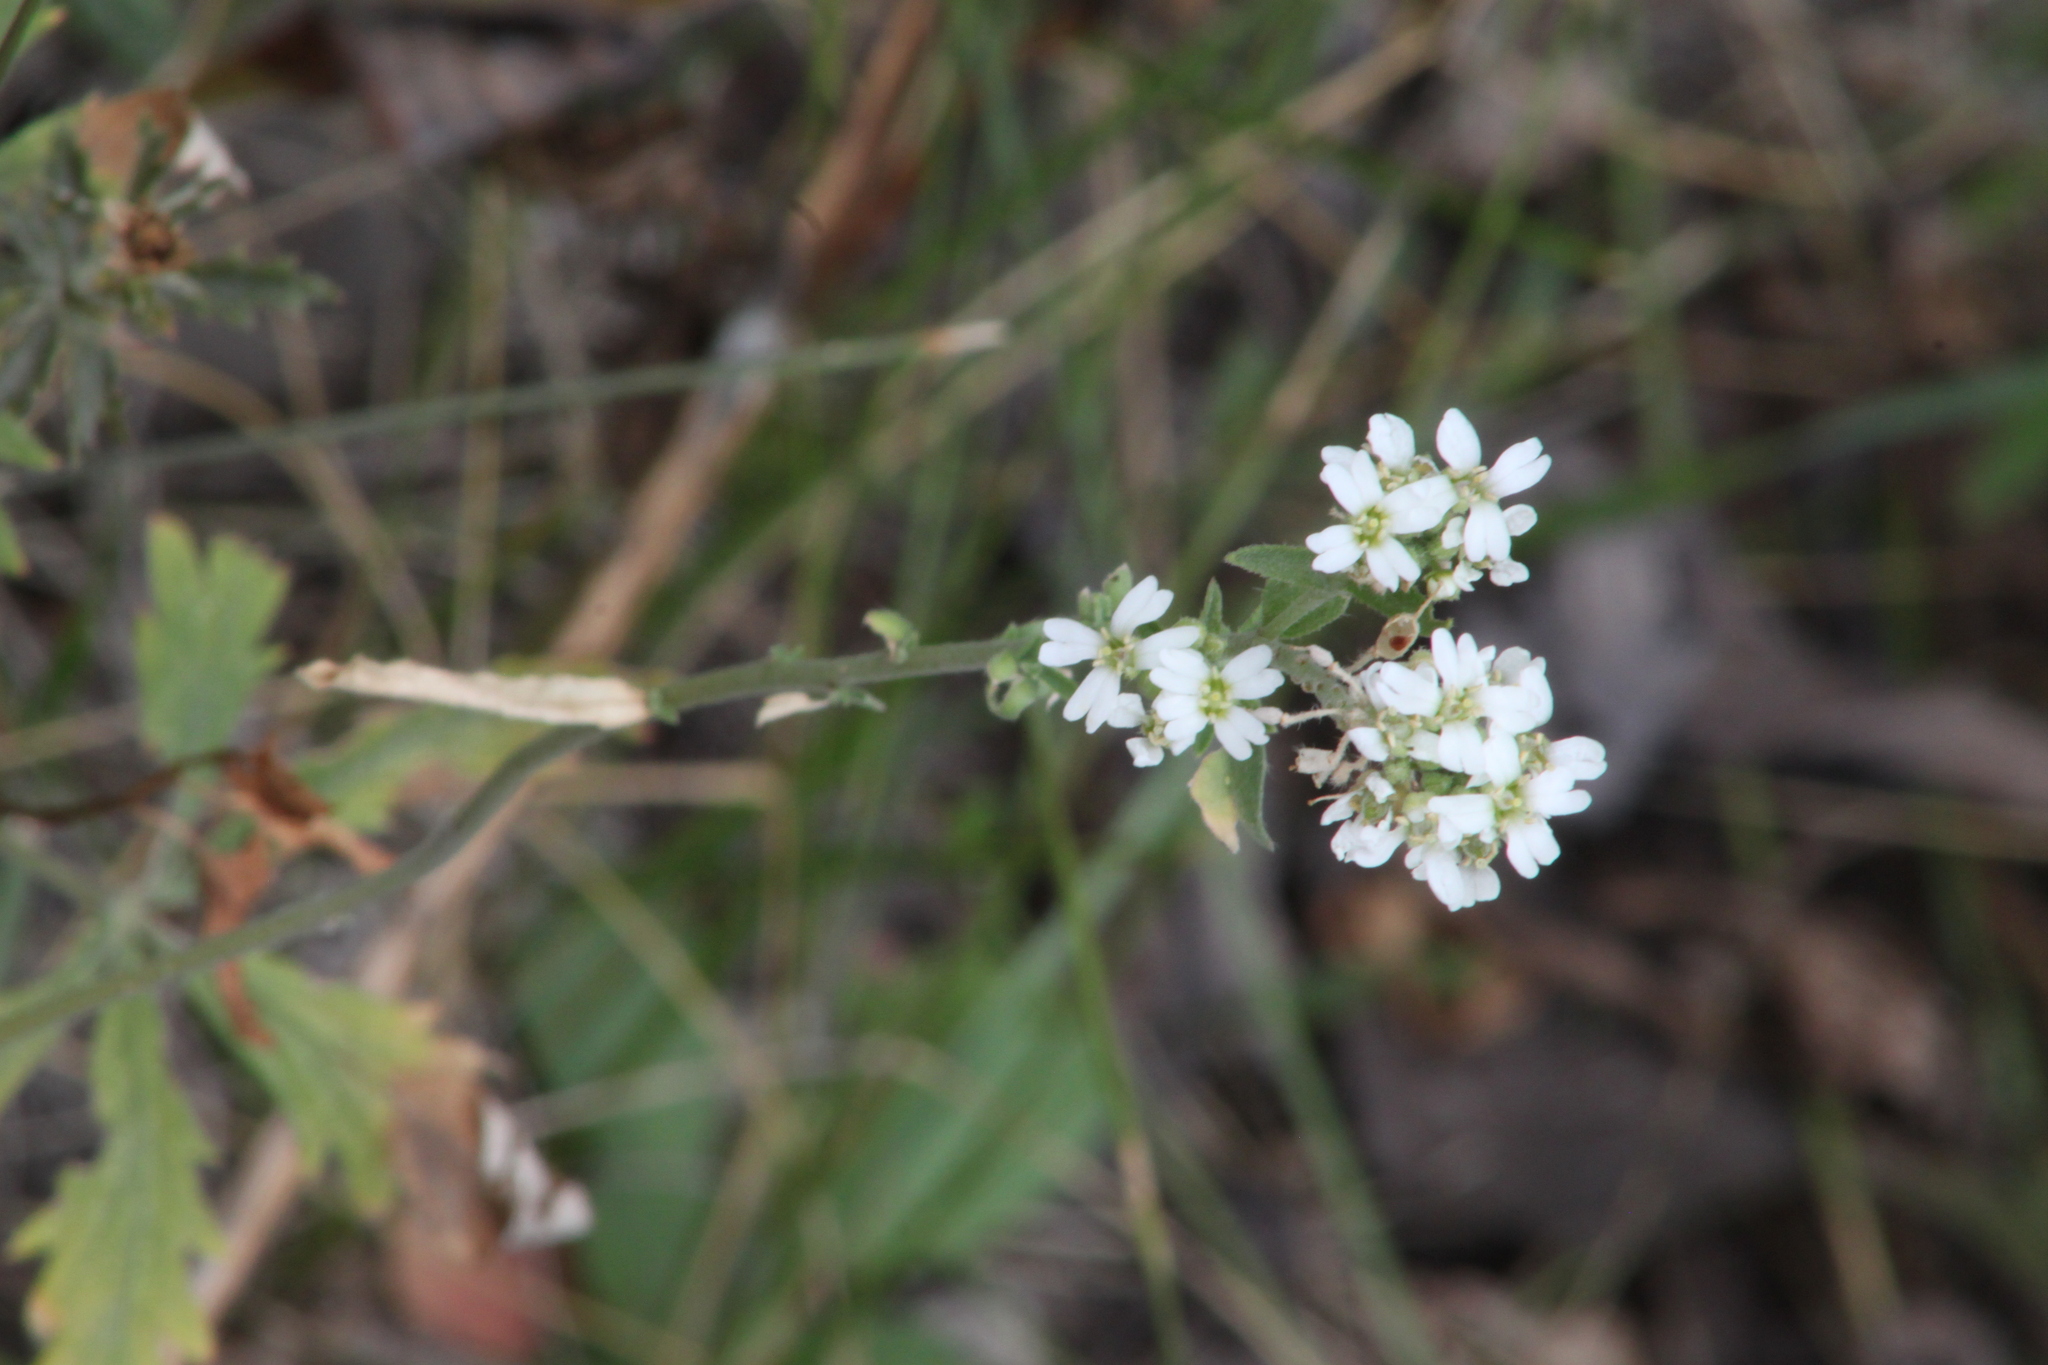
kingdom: Plantae
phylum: Tracheophyta
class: Magnoliopsida
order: Brassicales
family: Brassicaceae
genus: Berteroa
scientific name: Berteroa incana
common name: Hoary alison
